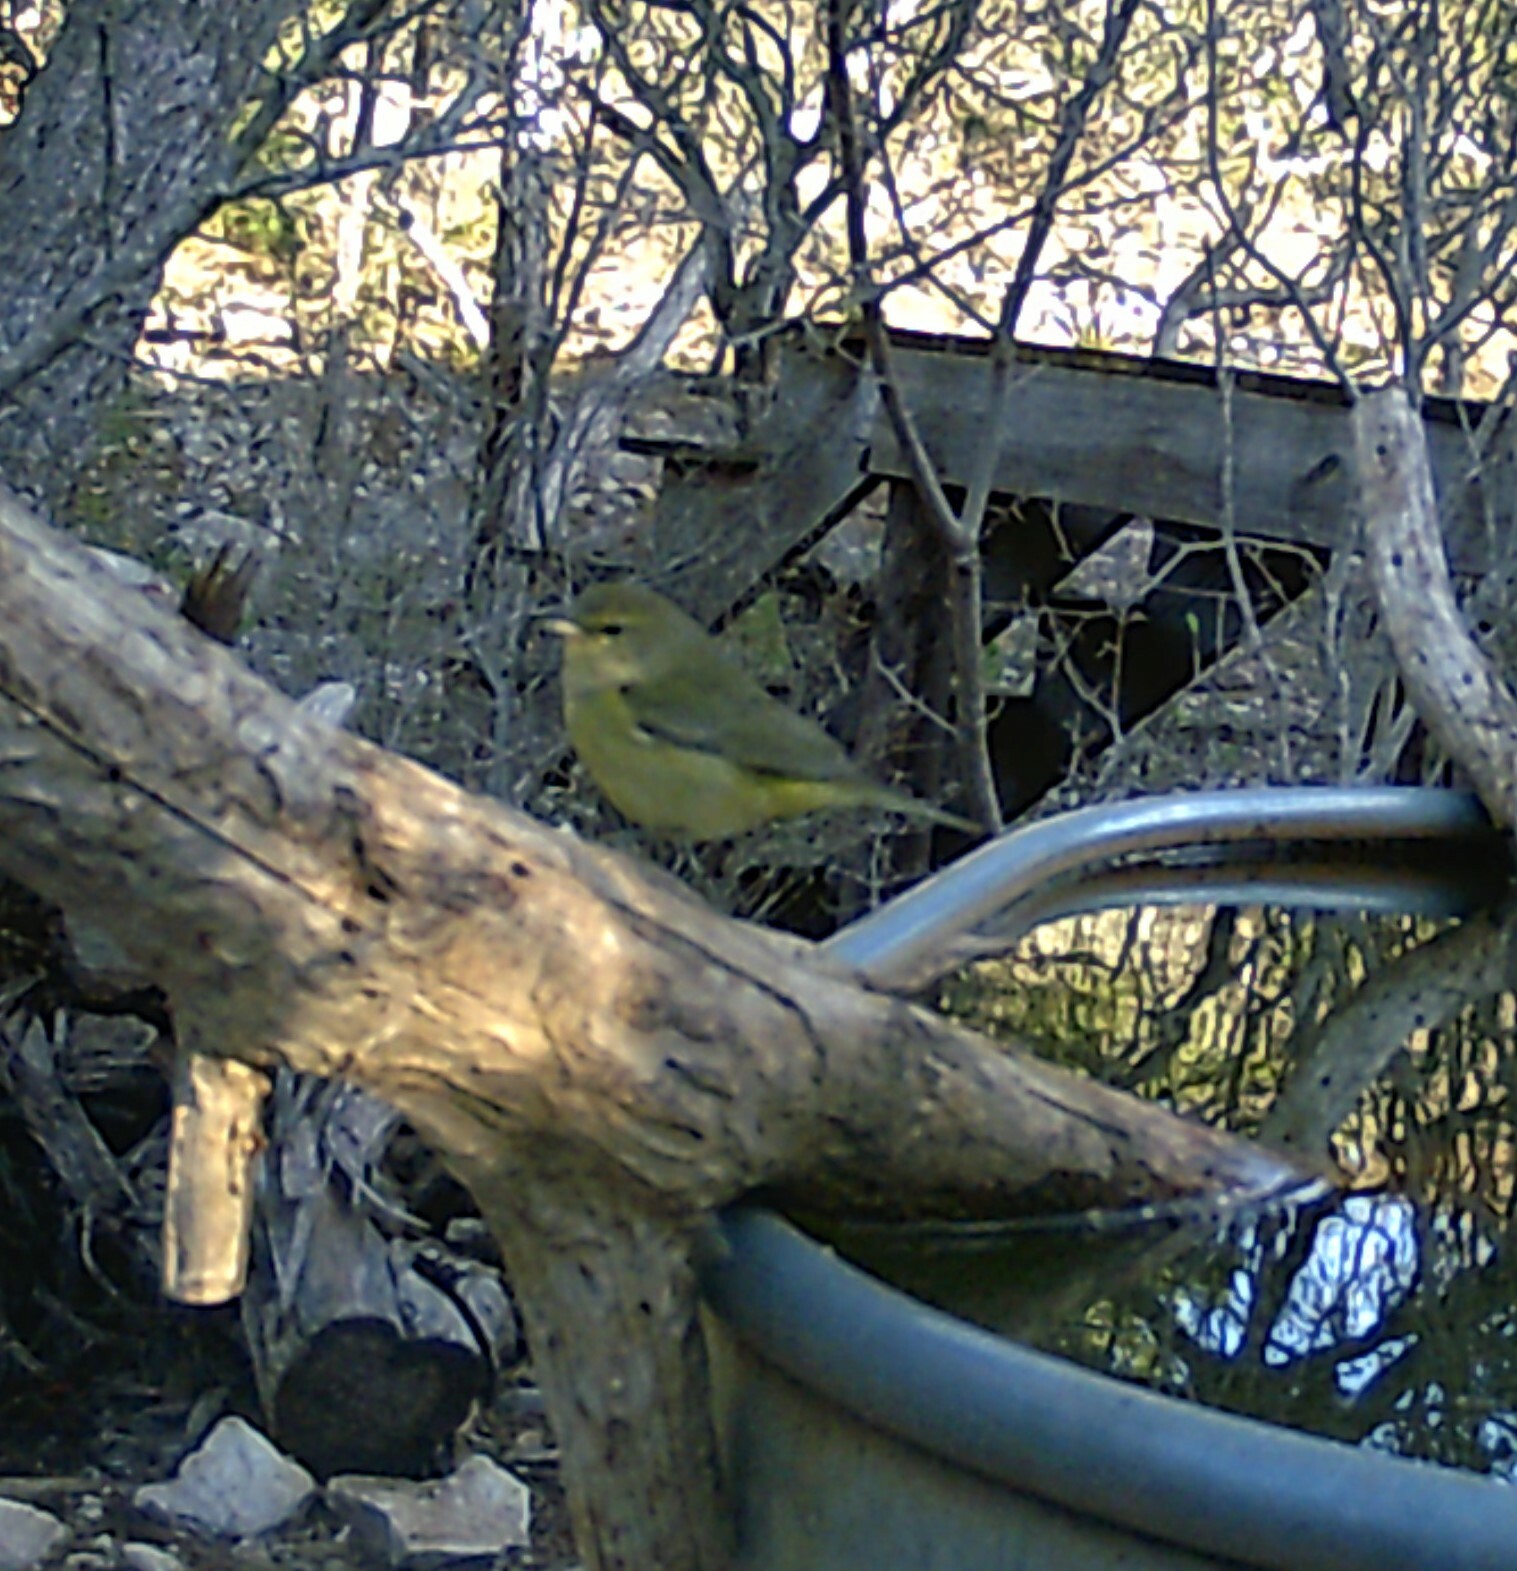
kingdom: Animalia
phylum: Chordata
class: Aves
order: Passeriformes
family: Parulidae
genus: Leiothlypis
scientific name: Leiothlypis celata
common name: Orange-crowned warbler
